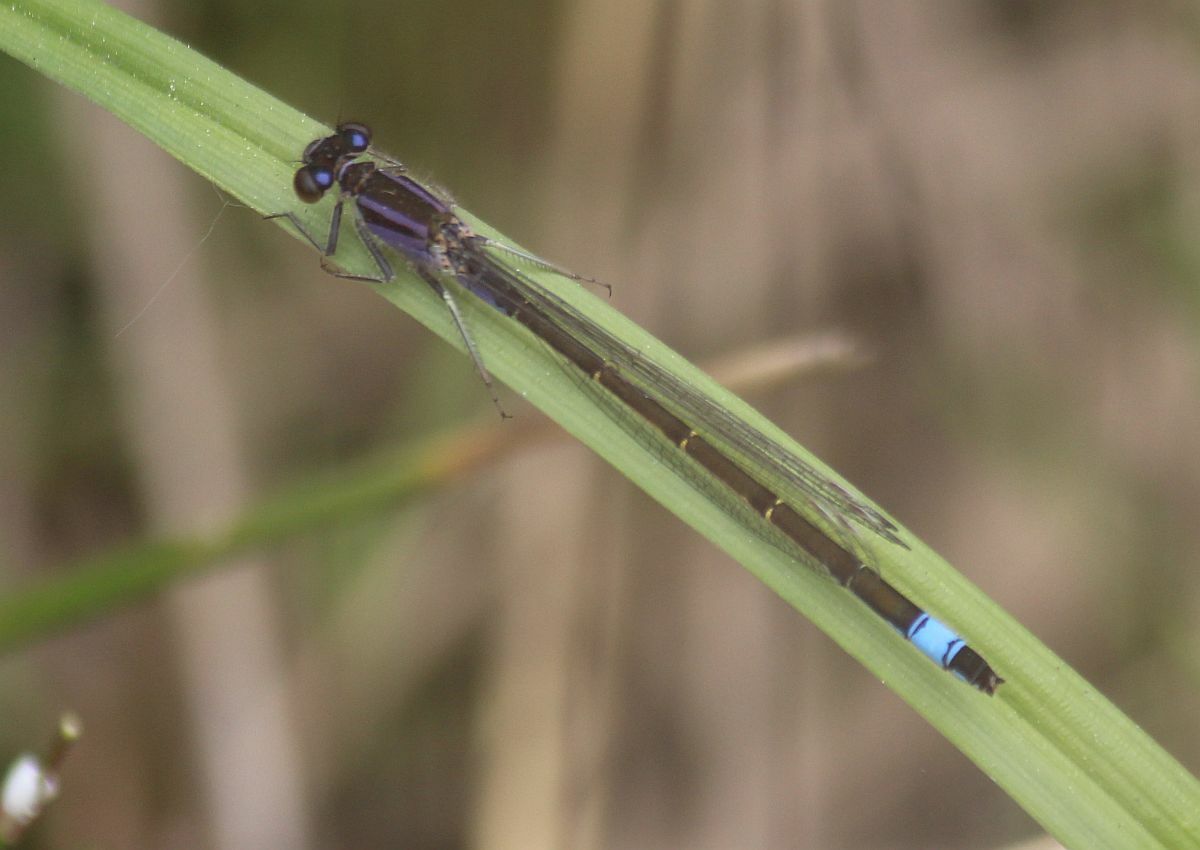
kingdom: Animalia
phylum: Arthropoda
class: Insecta
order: Odonata
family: Coenagrionidae
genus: Ischnura
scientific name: Ischnura elegans
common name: Blue-tailed damselfly
